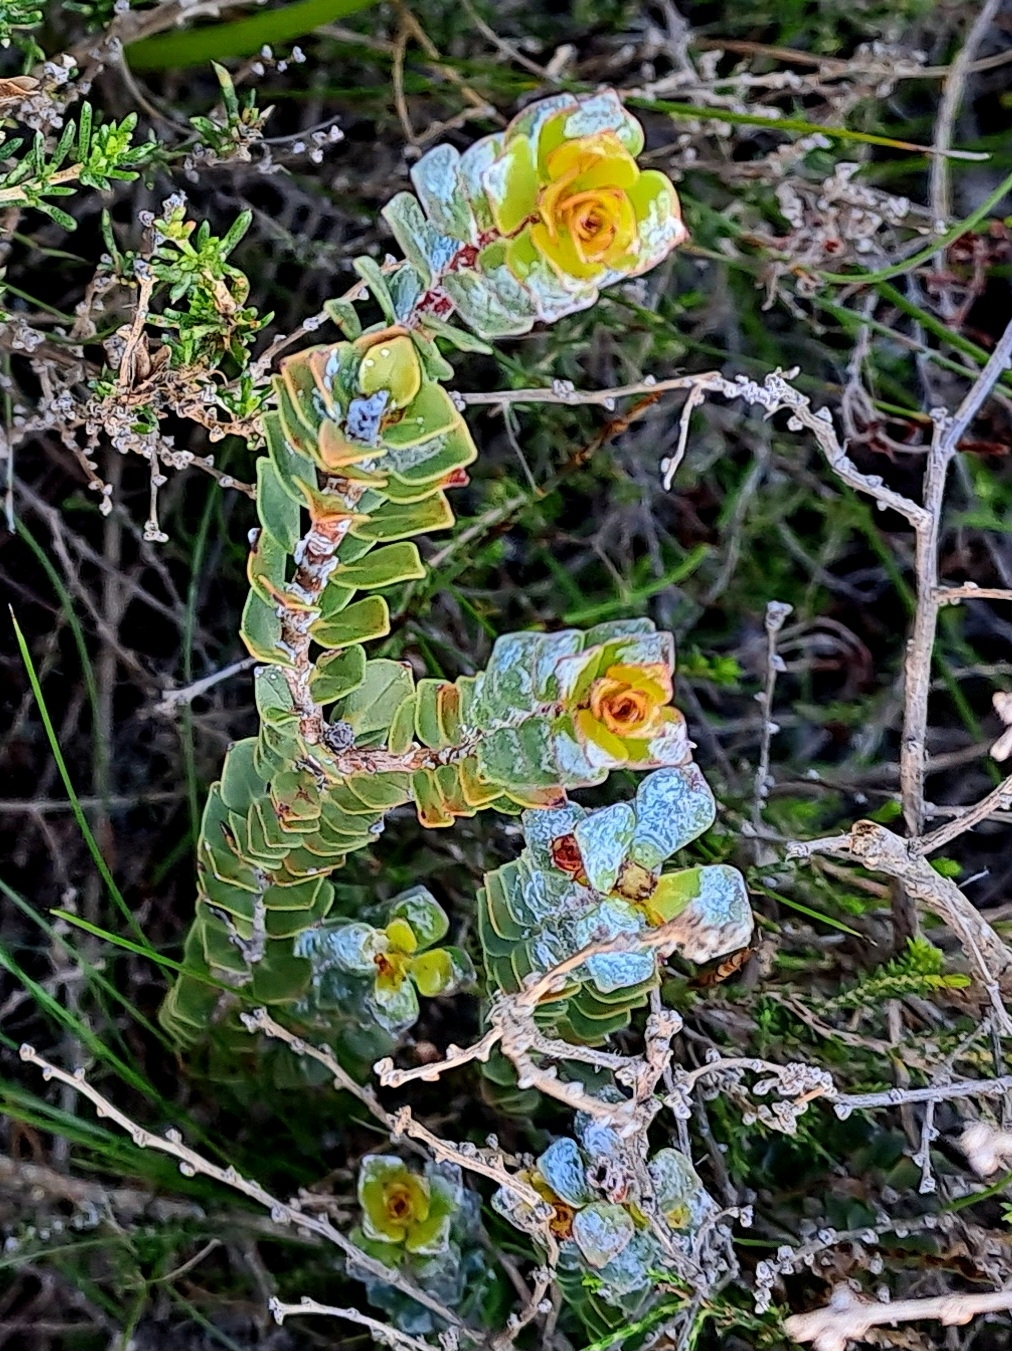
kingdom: Plantae
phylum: Tracheophyta
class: Magnoliopsida
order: Myrtales
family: Penaeaceae
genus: Saltera
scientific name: Saltera sarcocolla
